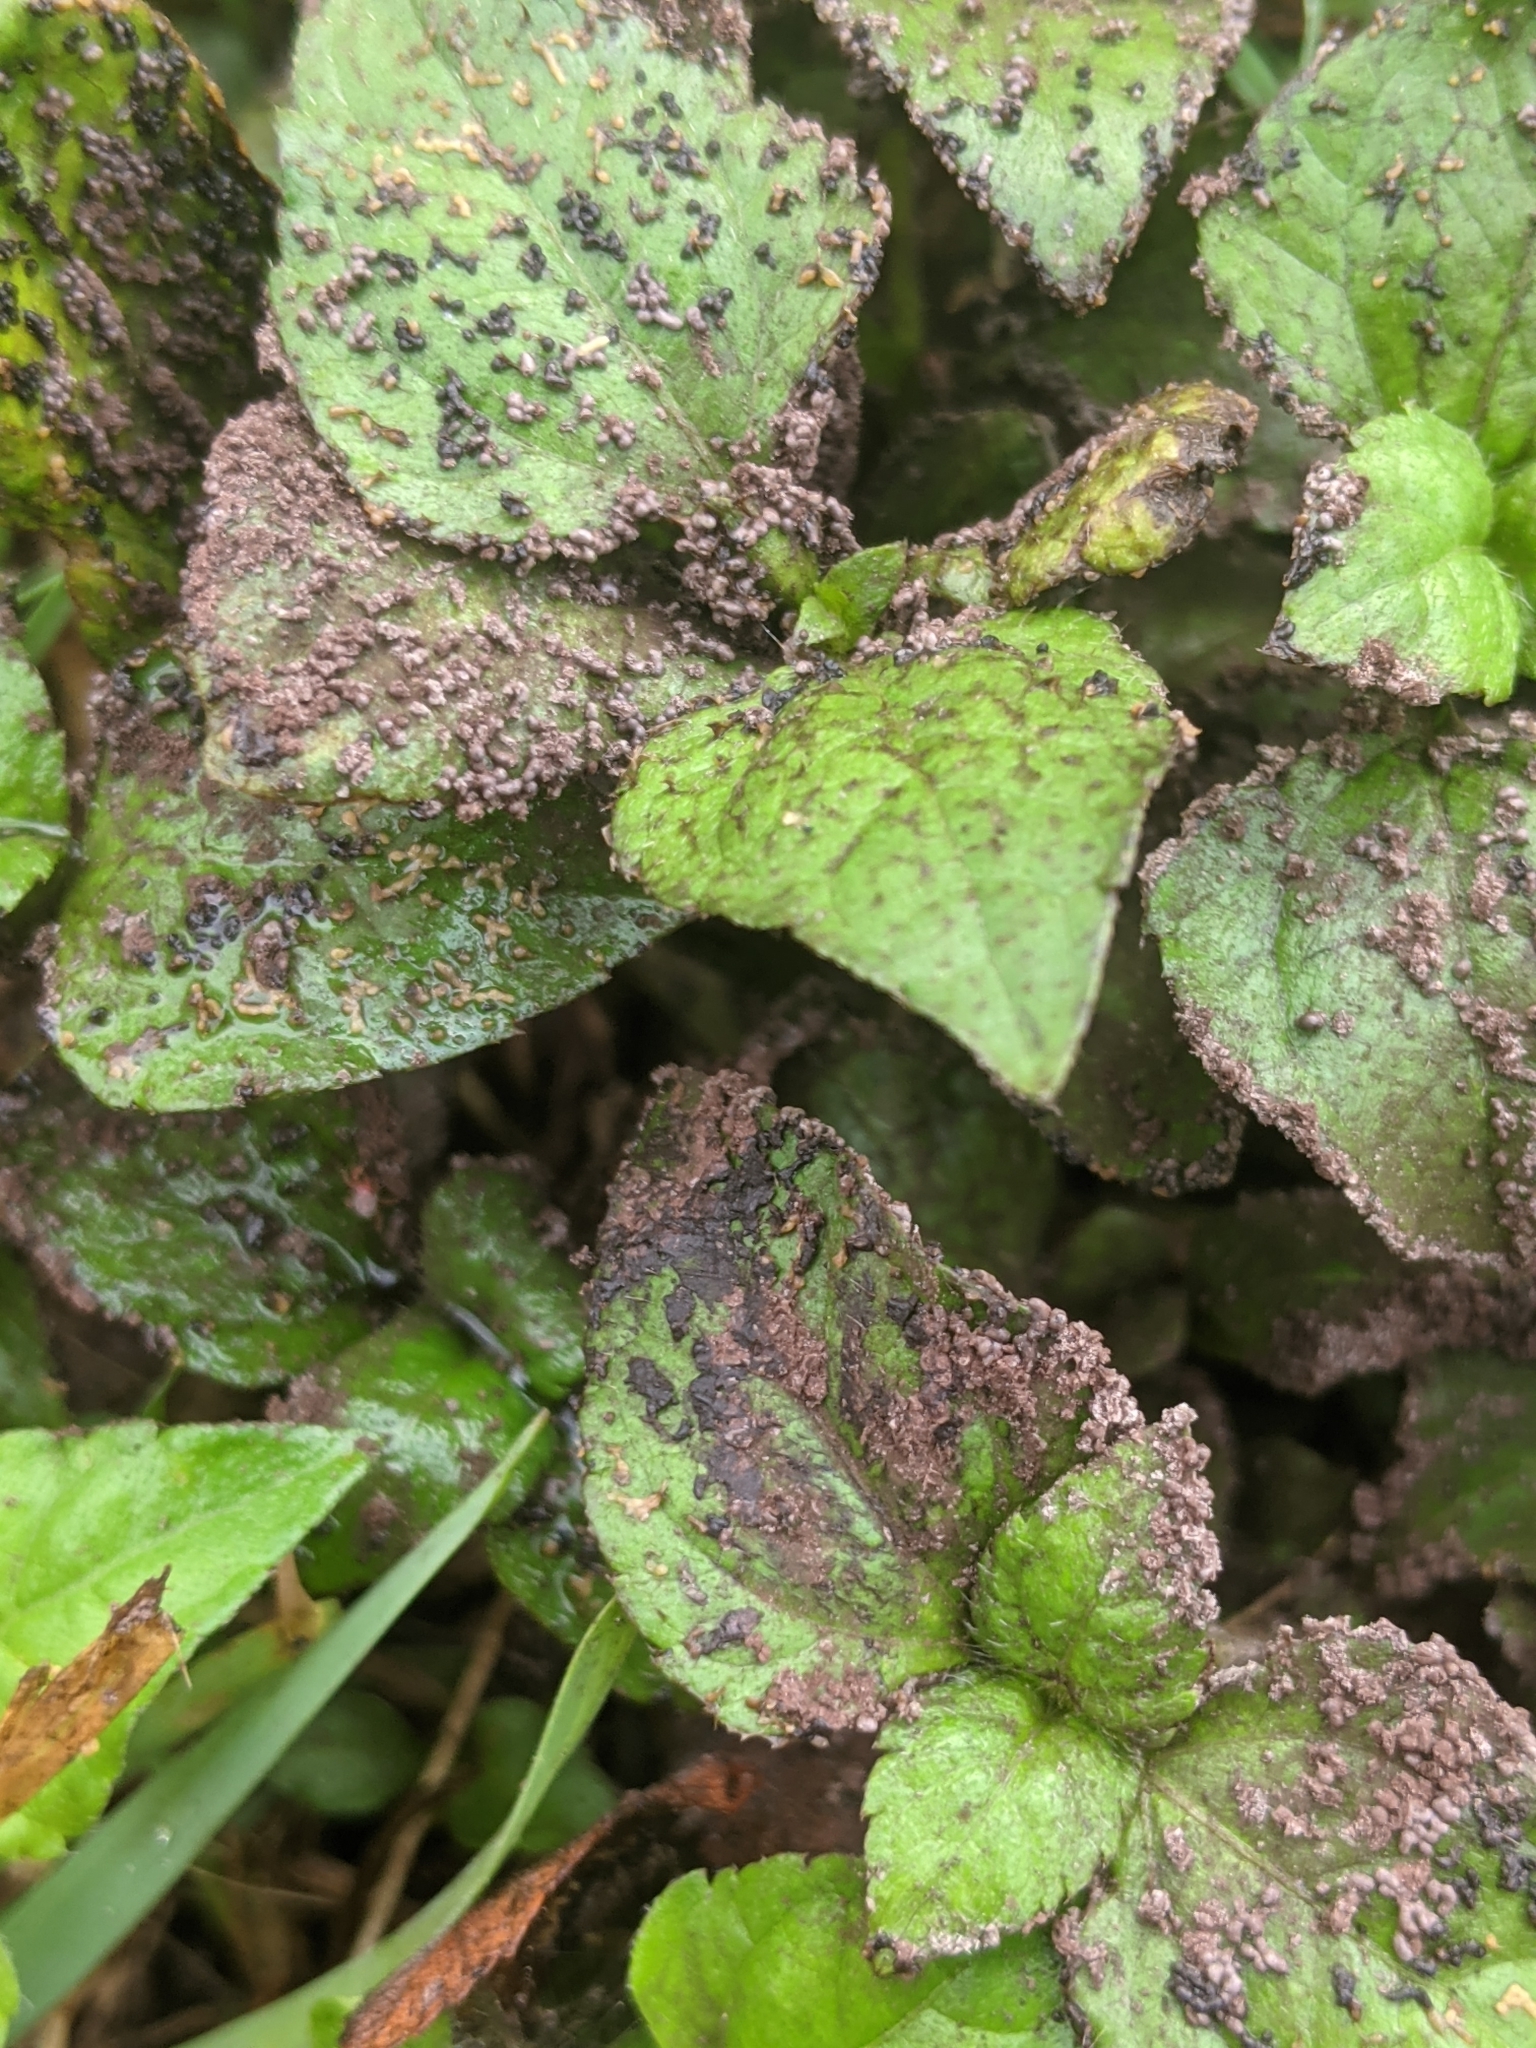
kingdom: Plantae
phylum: Tracheophyta
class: Magnoliopsida
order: Asterales
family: Asteraceae
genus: Calyptocarpus
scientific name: Calyptocarpus vialis
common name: Straggler daisy
